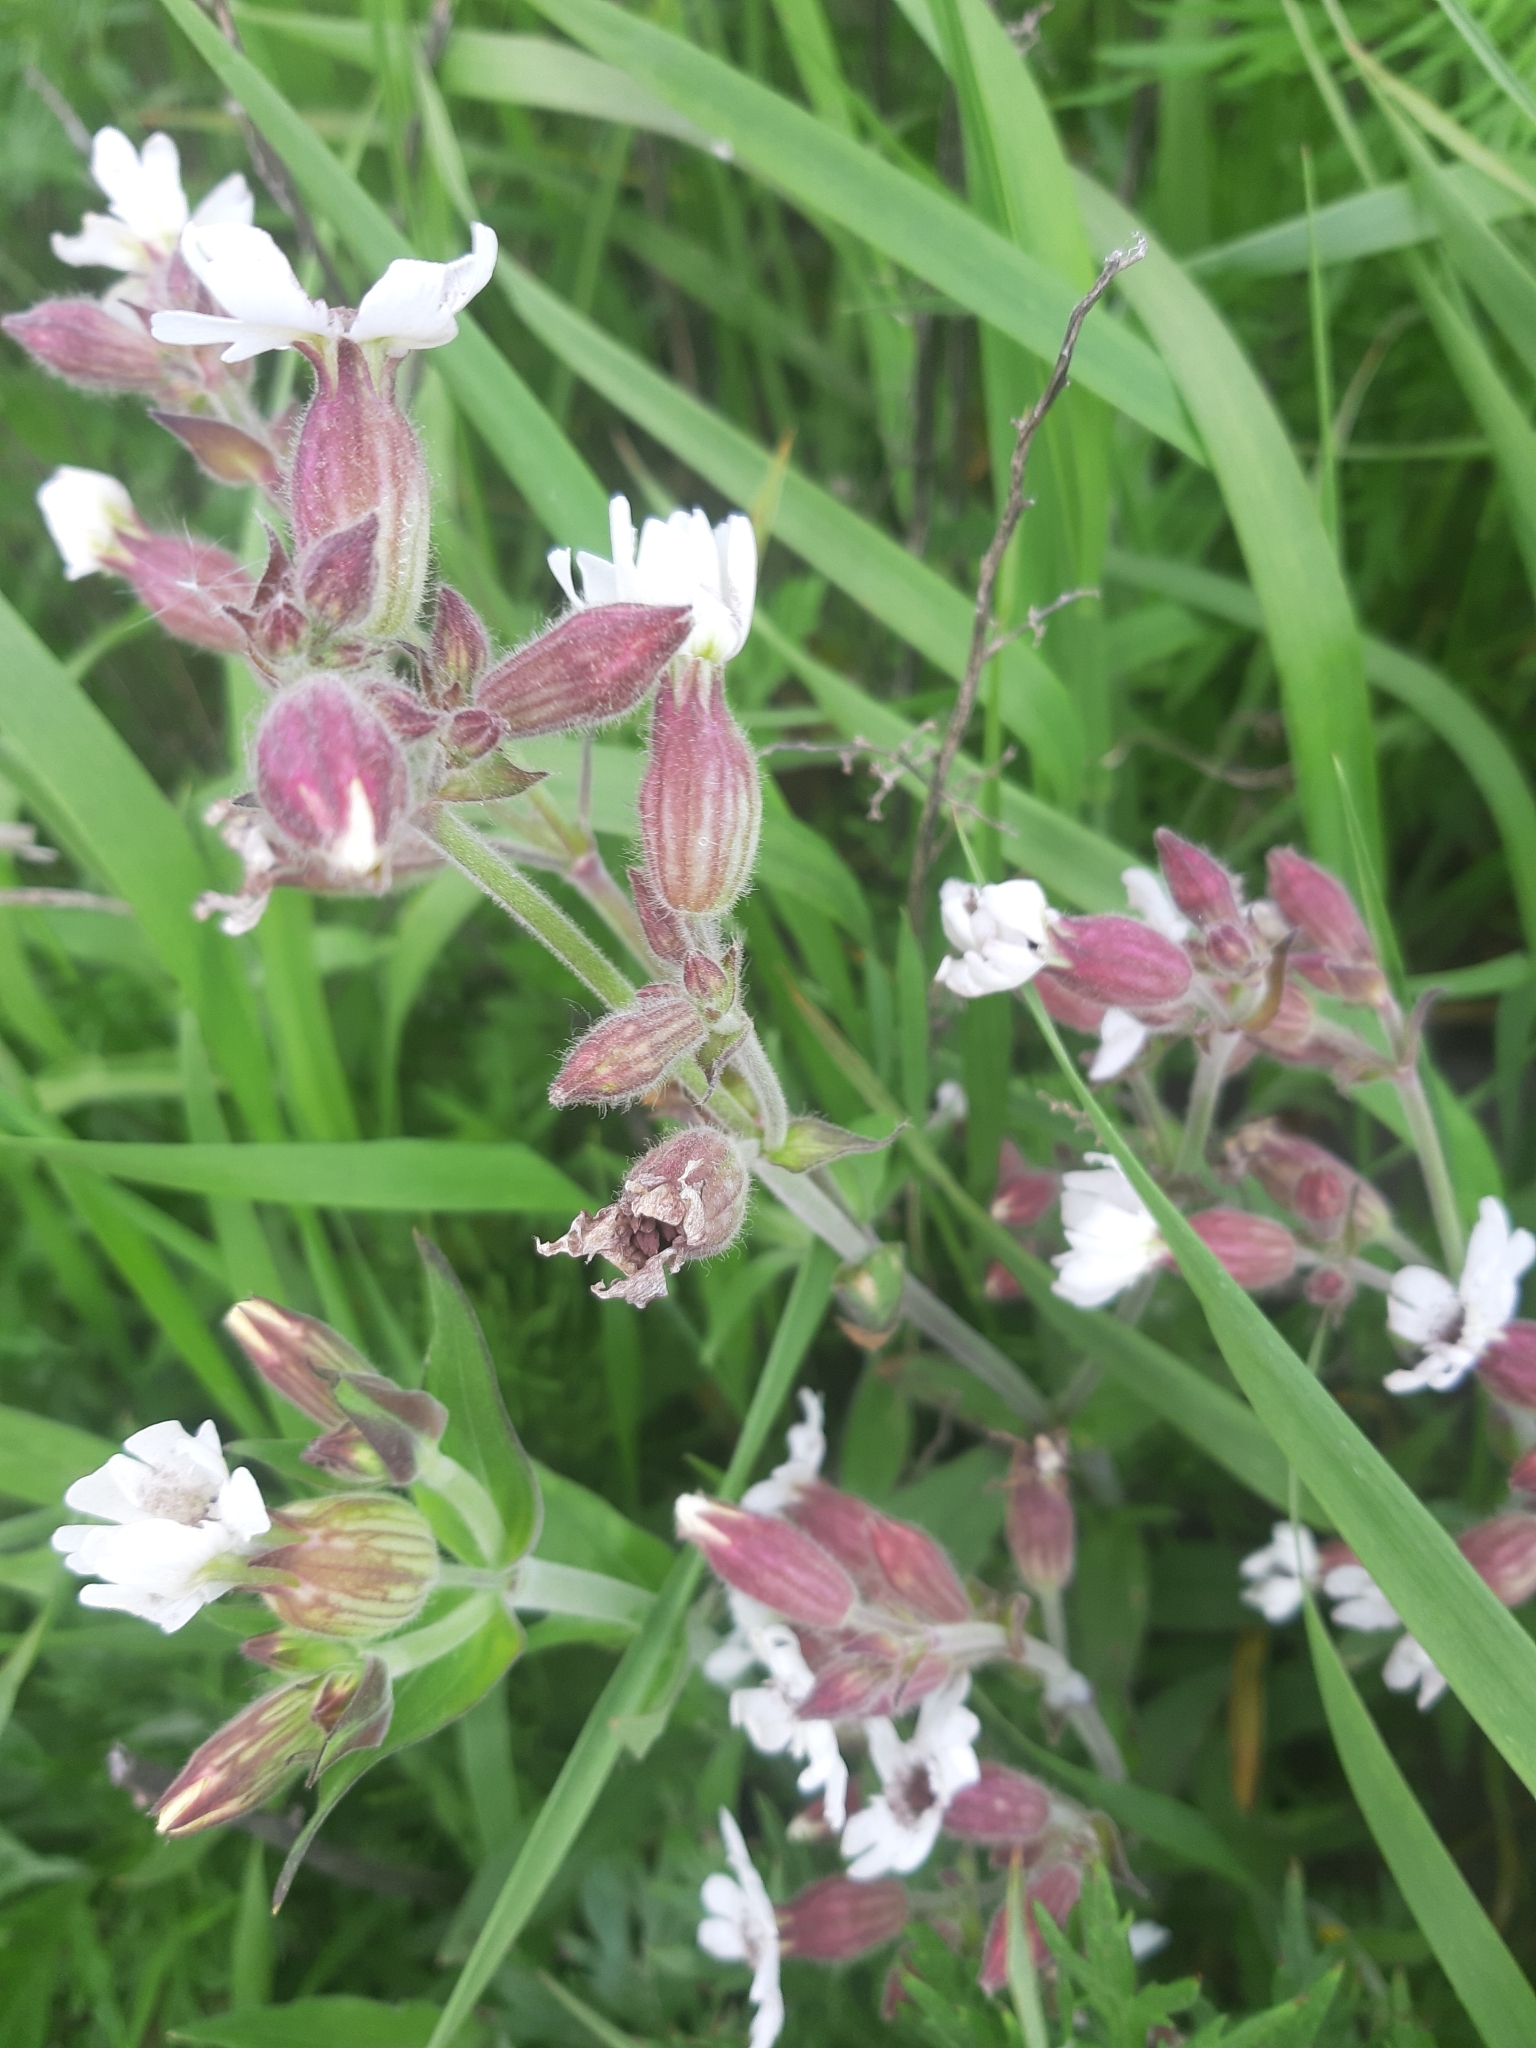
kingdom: Plantae
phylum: Tracheophyta
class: Magnoliopsida
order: Caryophyllales
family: Caryophyllaceae
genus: Silene
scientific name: Silene latifolia
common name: White campion
